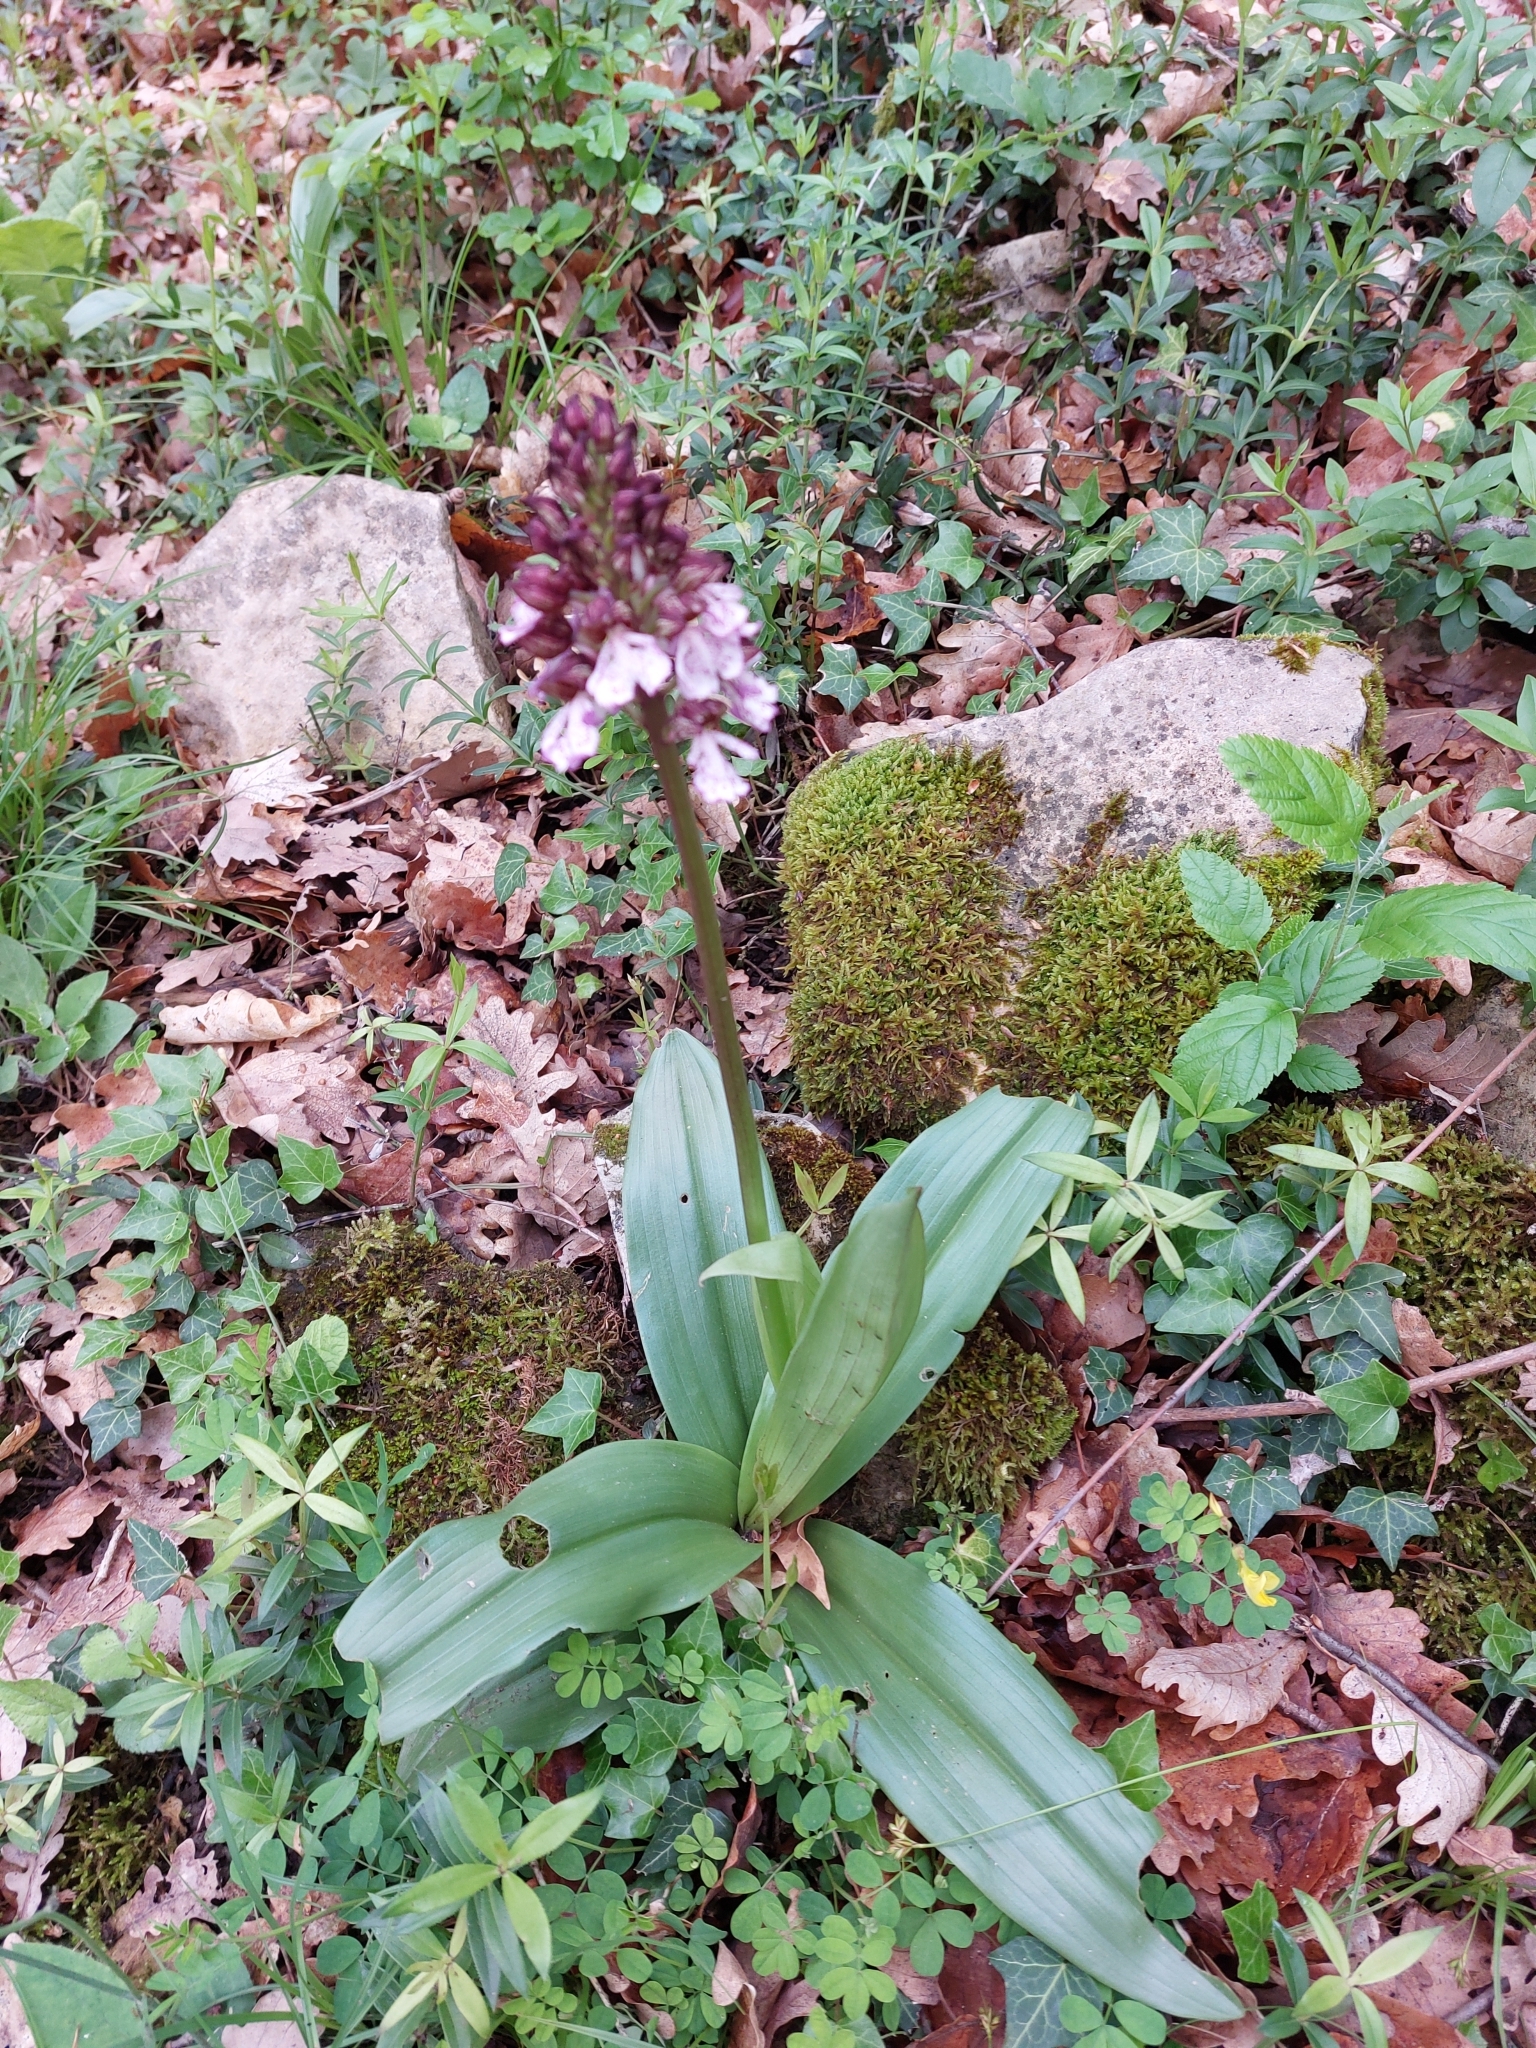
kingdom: Plantae
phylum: Tracheophyta
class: Liliopsida
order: Asparagales
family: Orchidaceae
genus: Orchis
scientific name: Orchis purpurea
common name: Lady orchid
